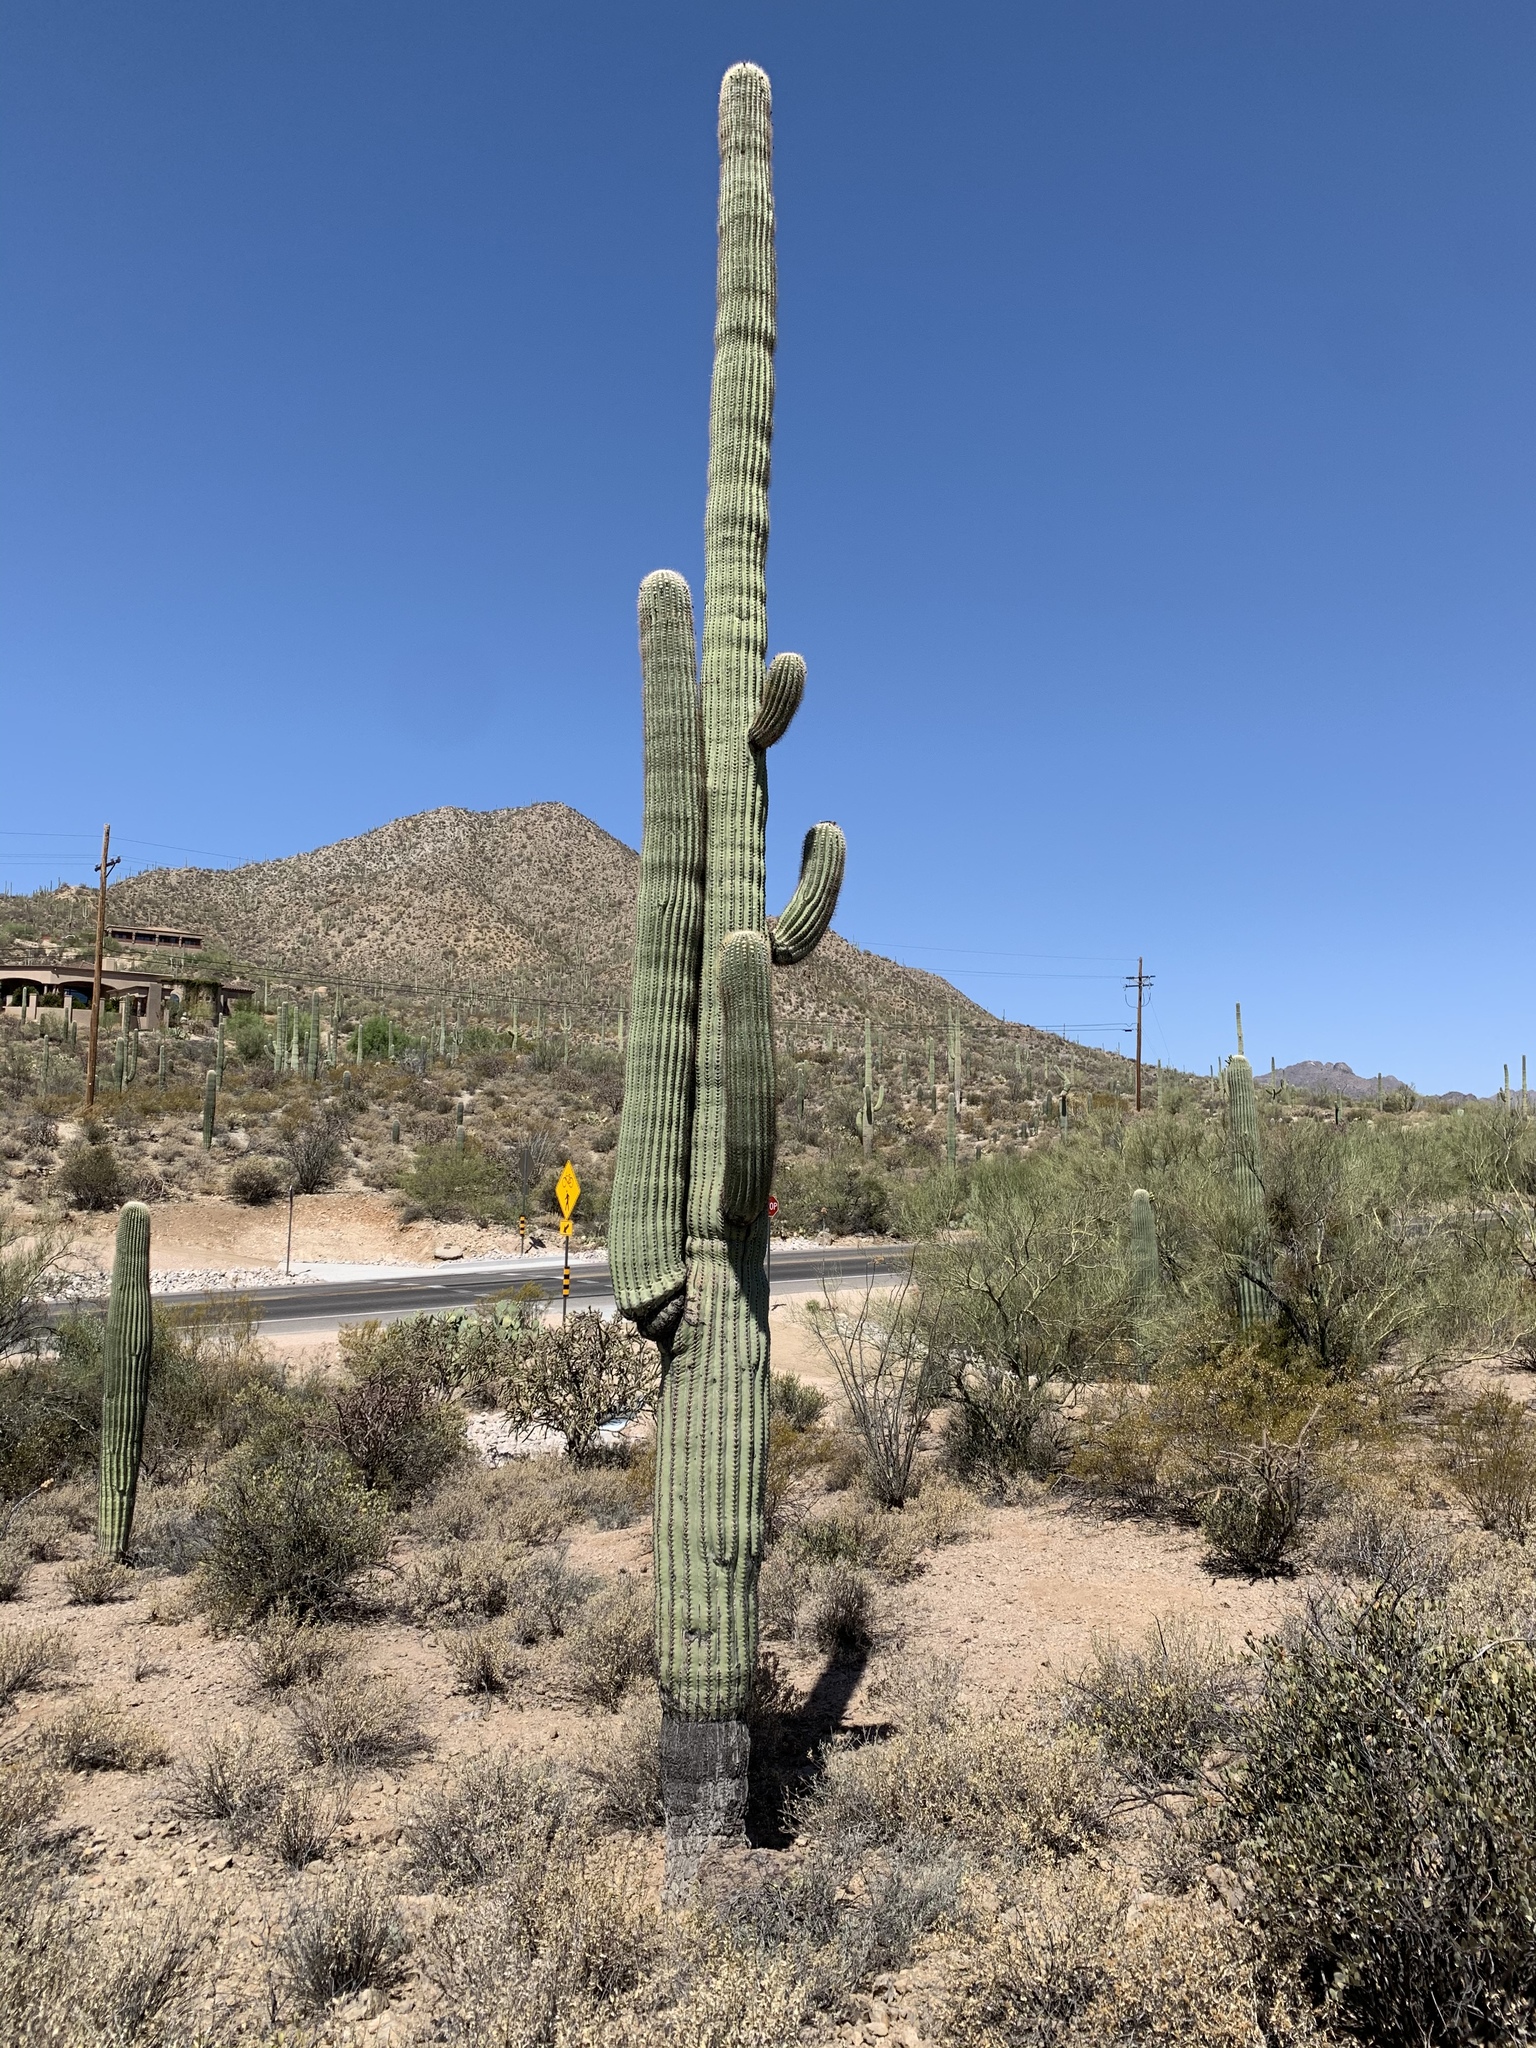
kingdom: Plantae
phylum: Tracheophyta
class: Magnoliopsida
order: Caryophyllales
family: Cactaceae
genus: Carnegiea
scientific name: Carnegiea gigantea
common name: Saguaro
